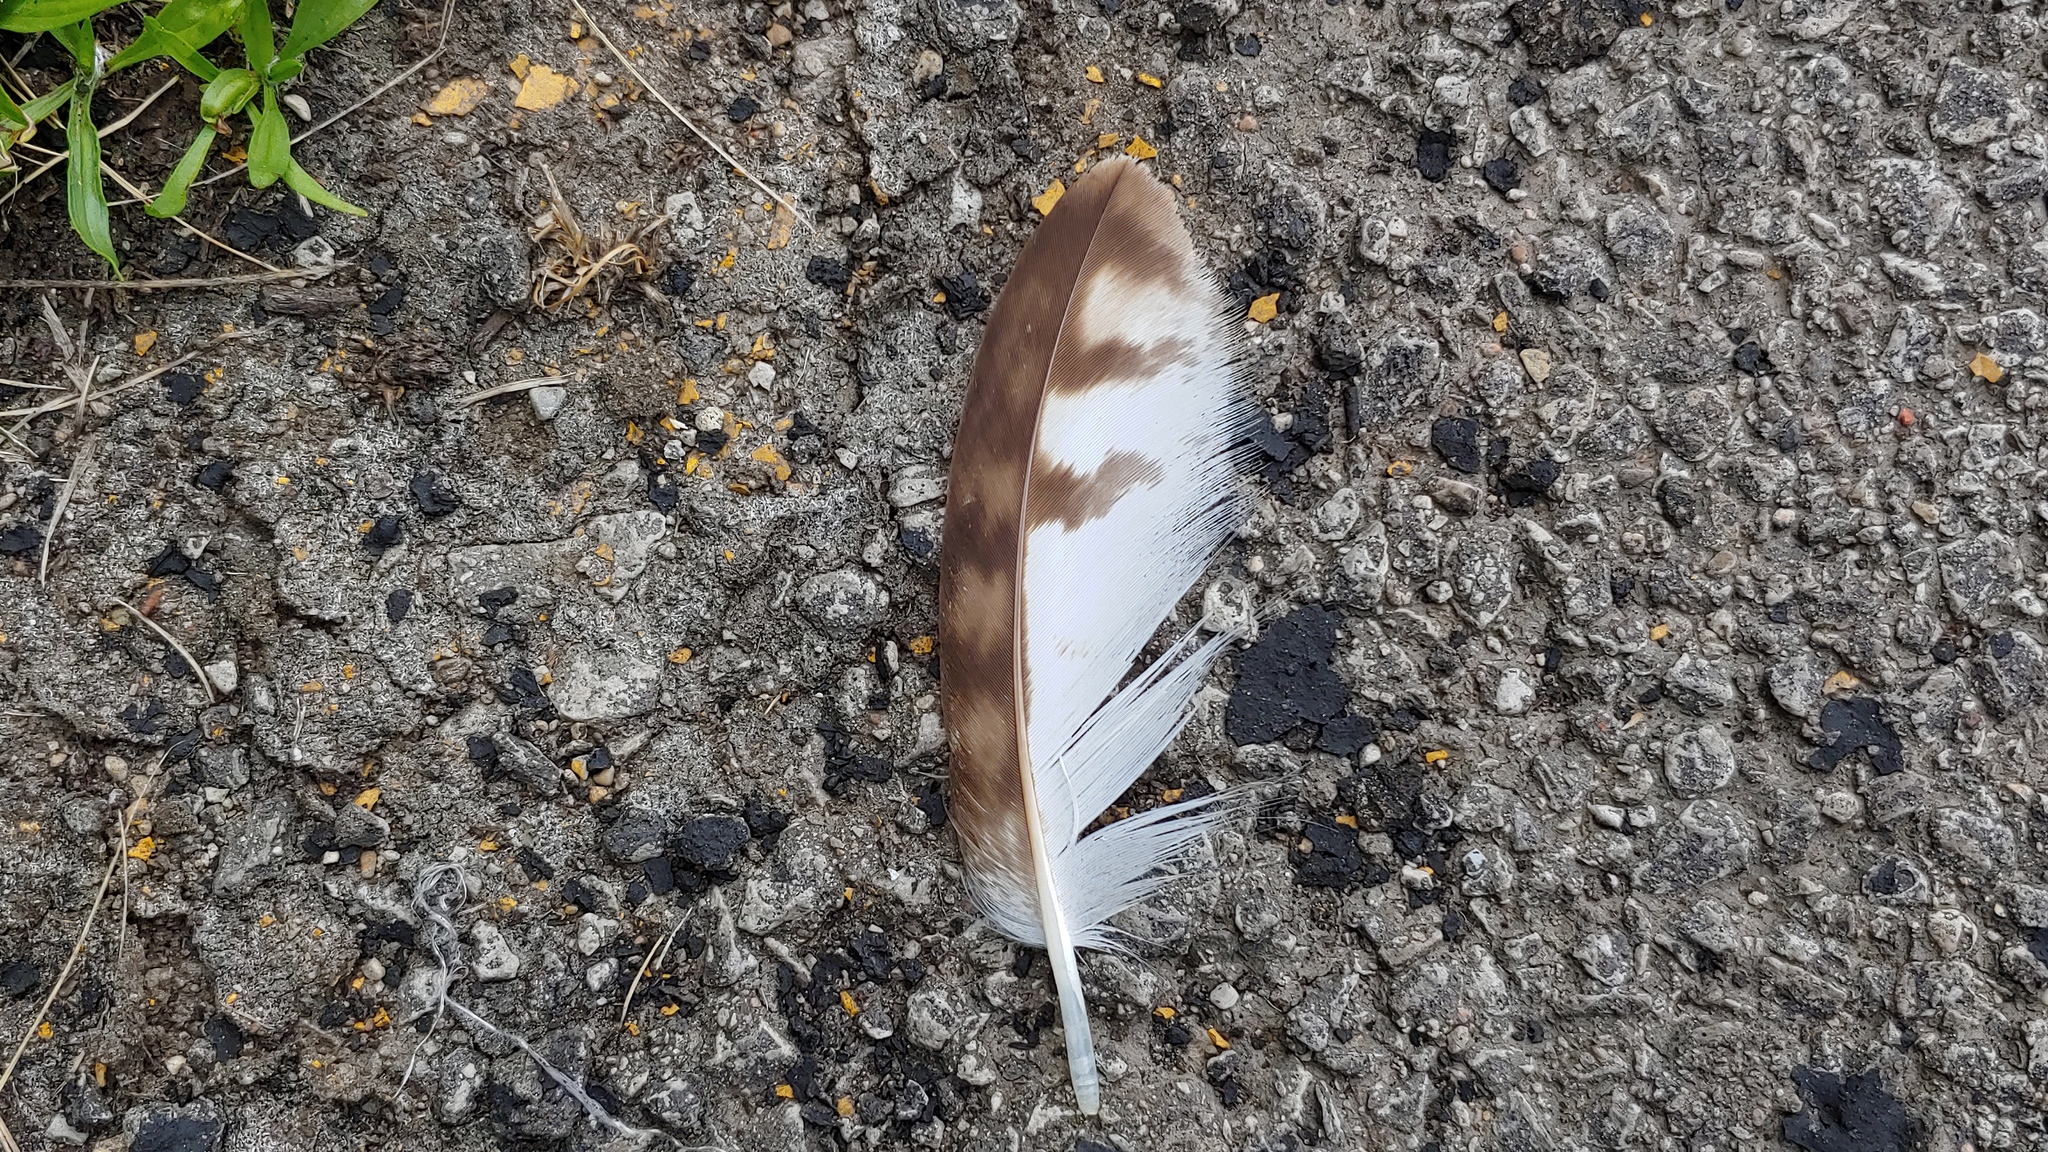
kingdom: Animalia
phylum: Chordata
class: Aves
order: Accipitriformes
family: Accipitridae
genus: Buteo
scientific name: Buteo jamaicensis
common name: Red-tailed hawk
